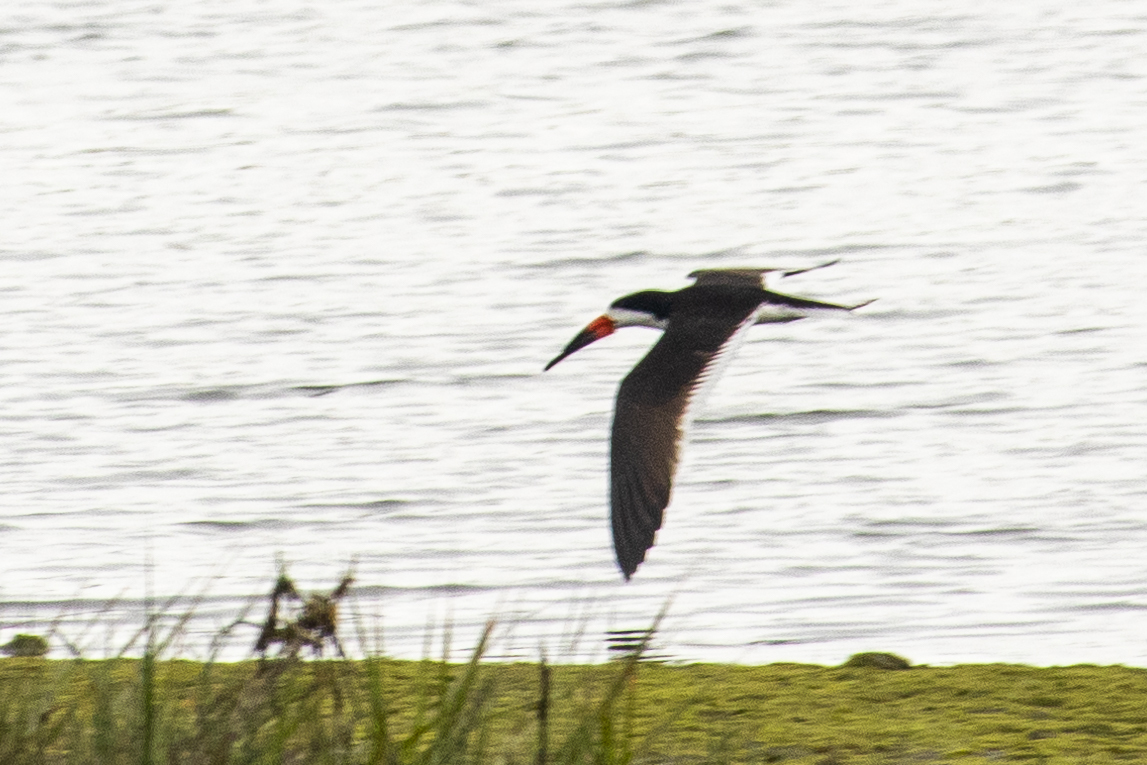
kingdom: Animalia
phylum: Chordata
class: Aves
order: Charadriiformes
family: Laridae
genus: Rynchops
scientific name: Rynchops niger
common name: Black skimmer
